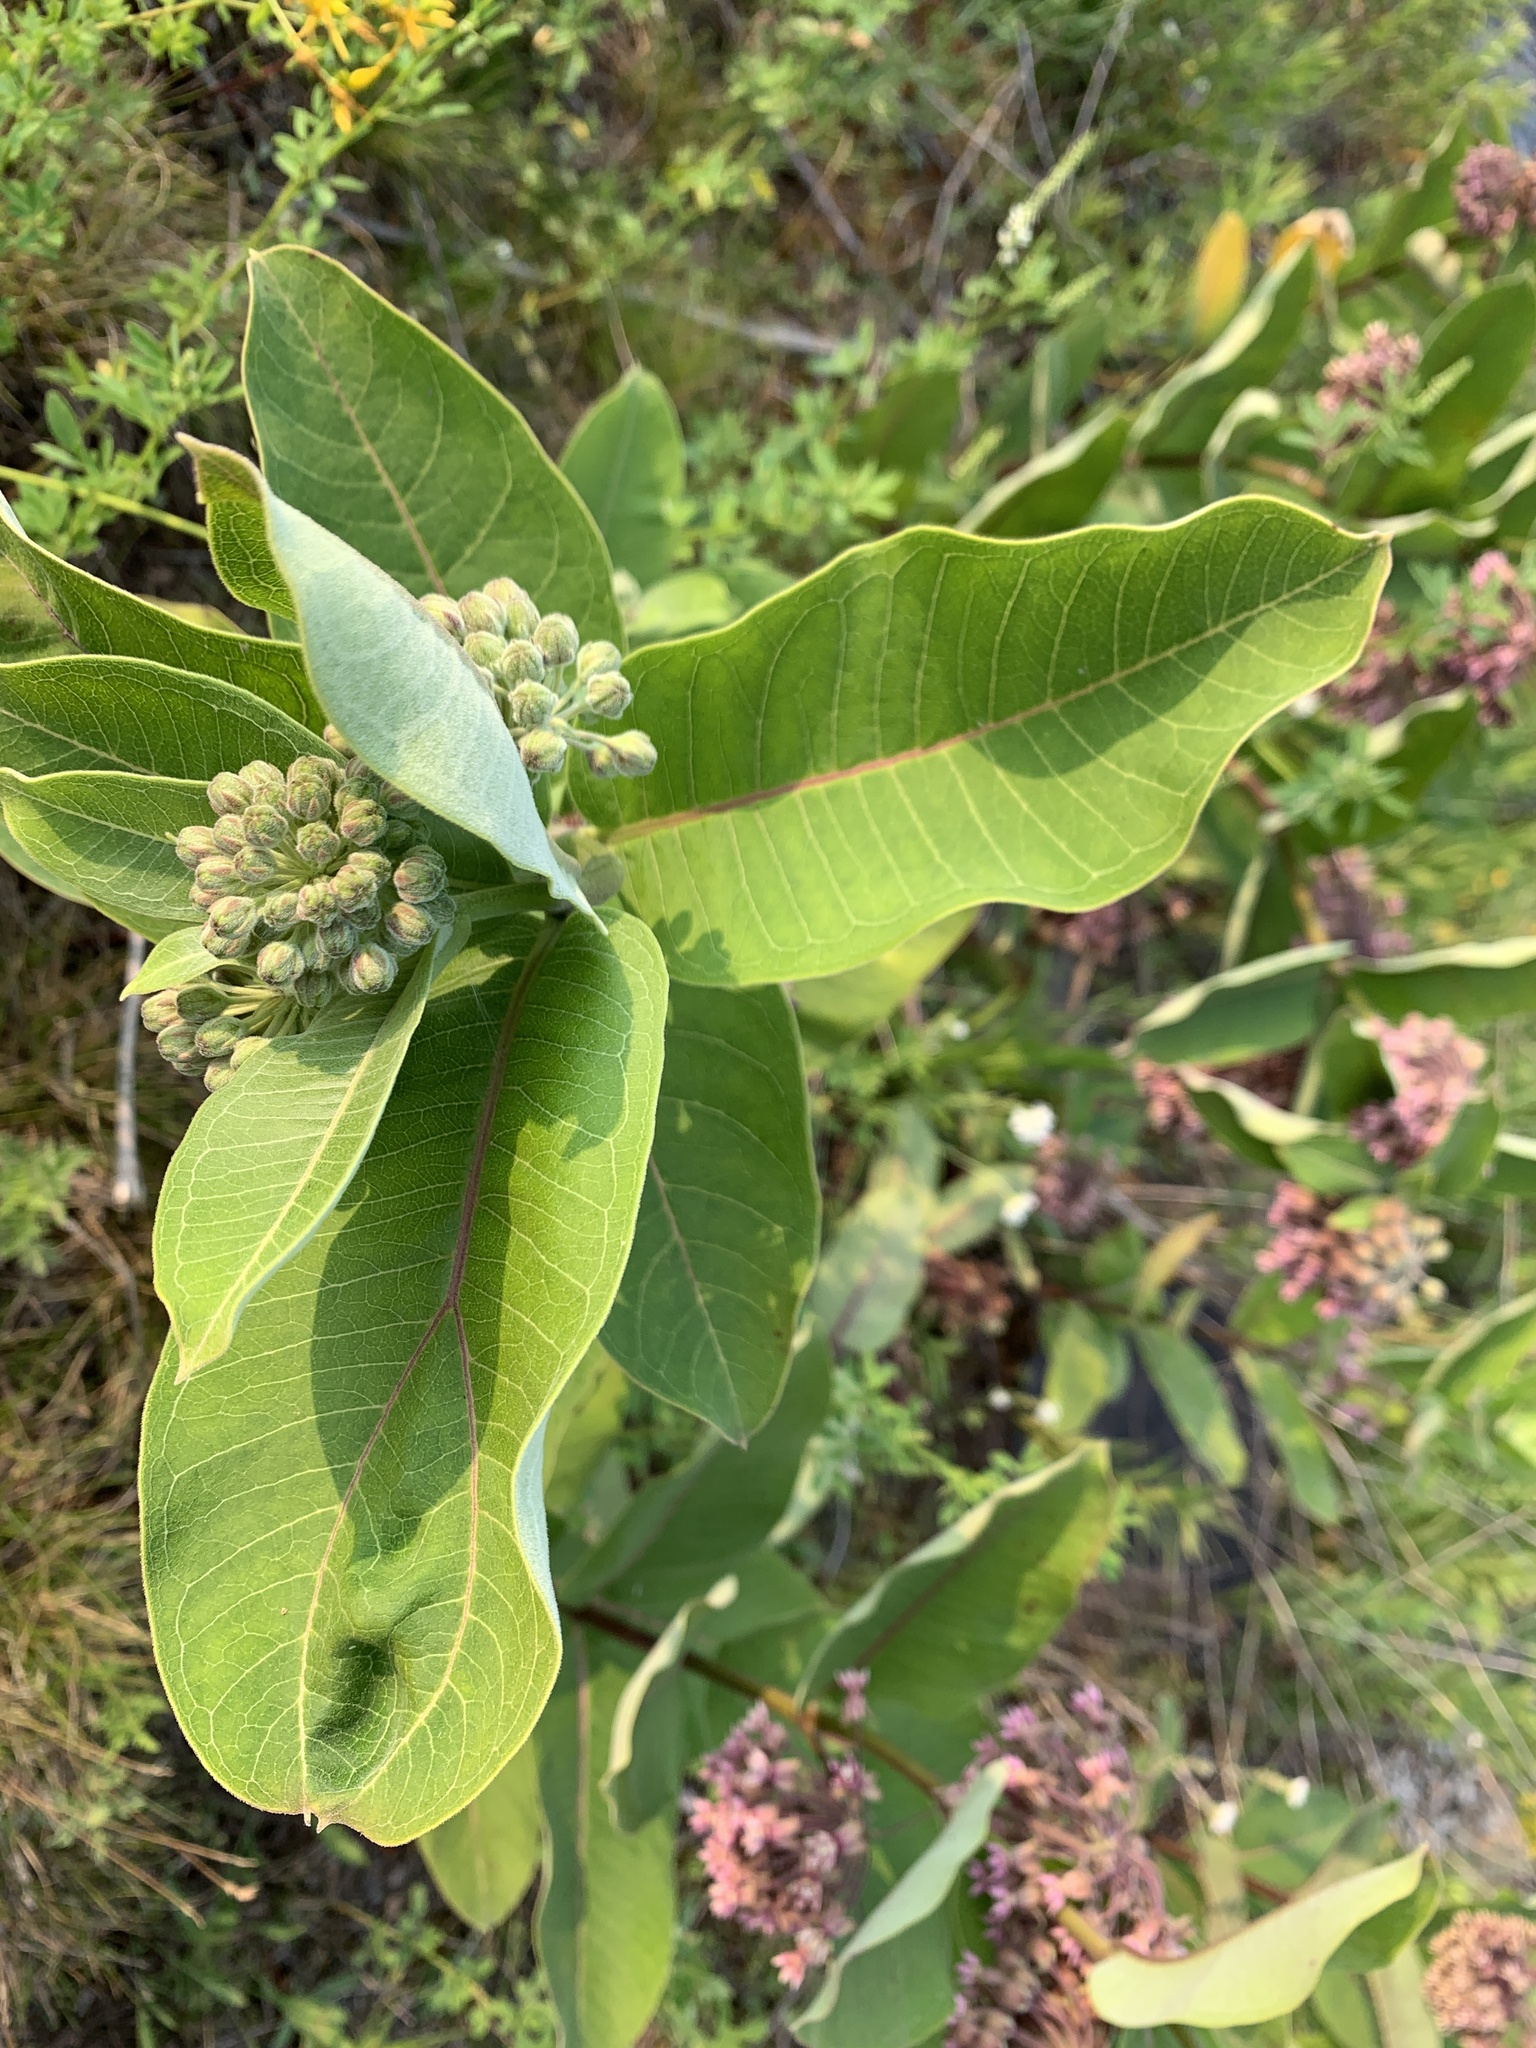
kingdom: Plantae
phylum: Tracheophyta
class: Magnoliopsida
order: Gentianales
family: Apocynaceae
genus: Asclepias
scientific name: Asclepias syriaca
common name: Common milkweed
